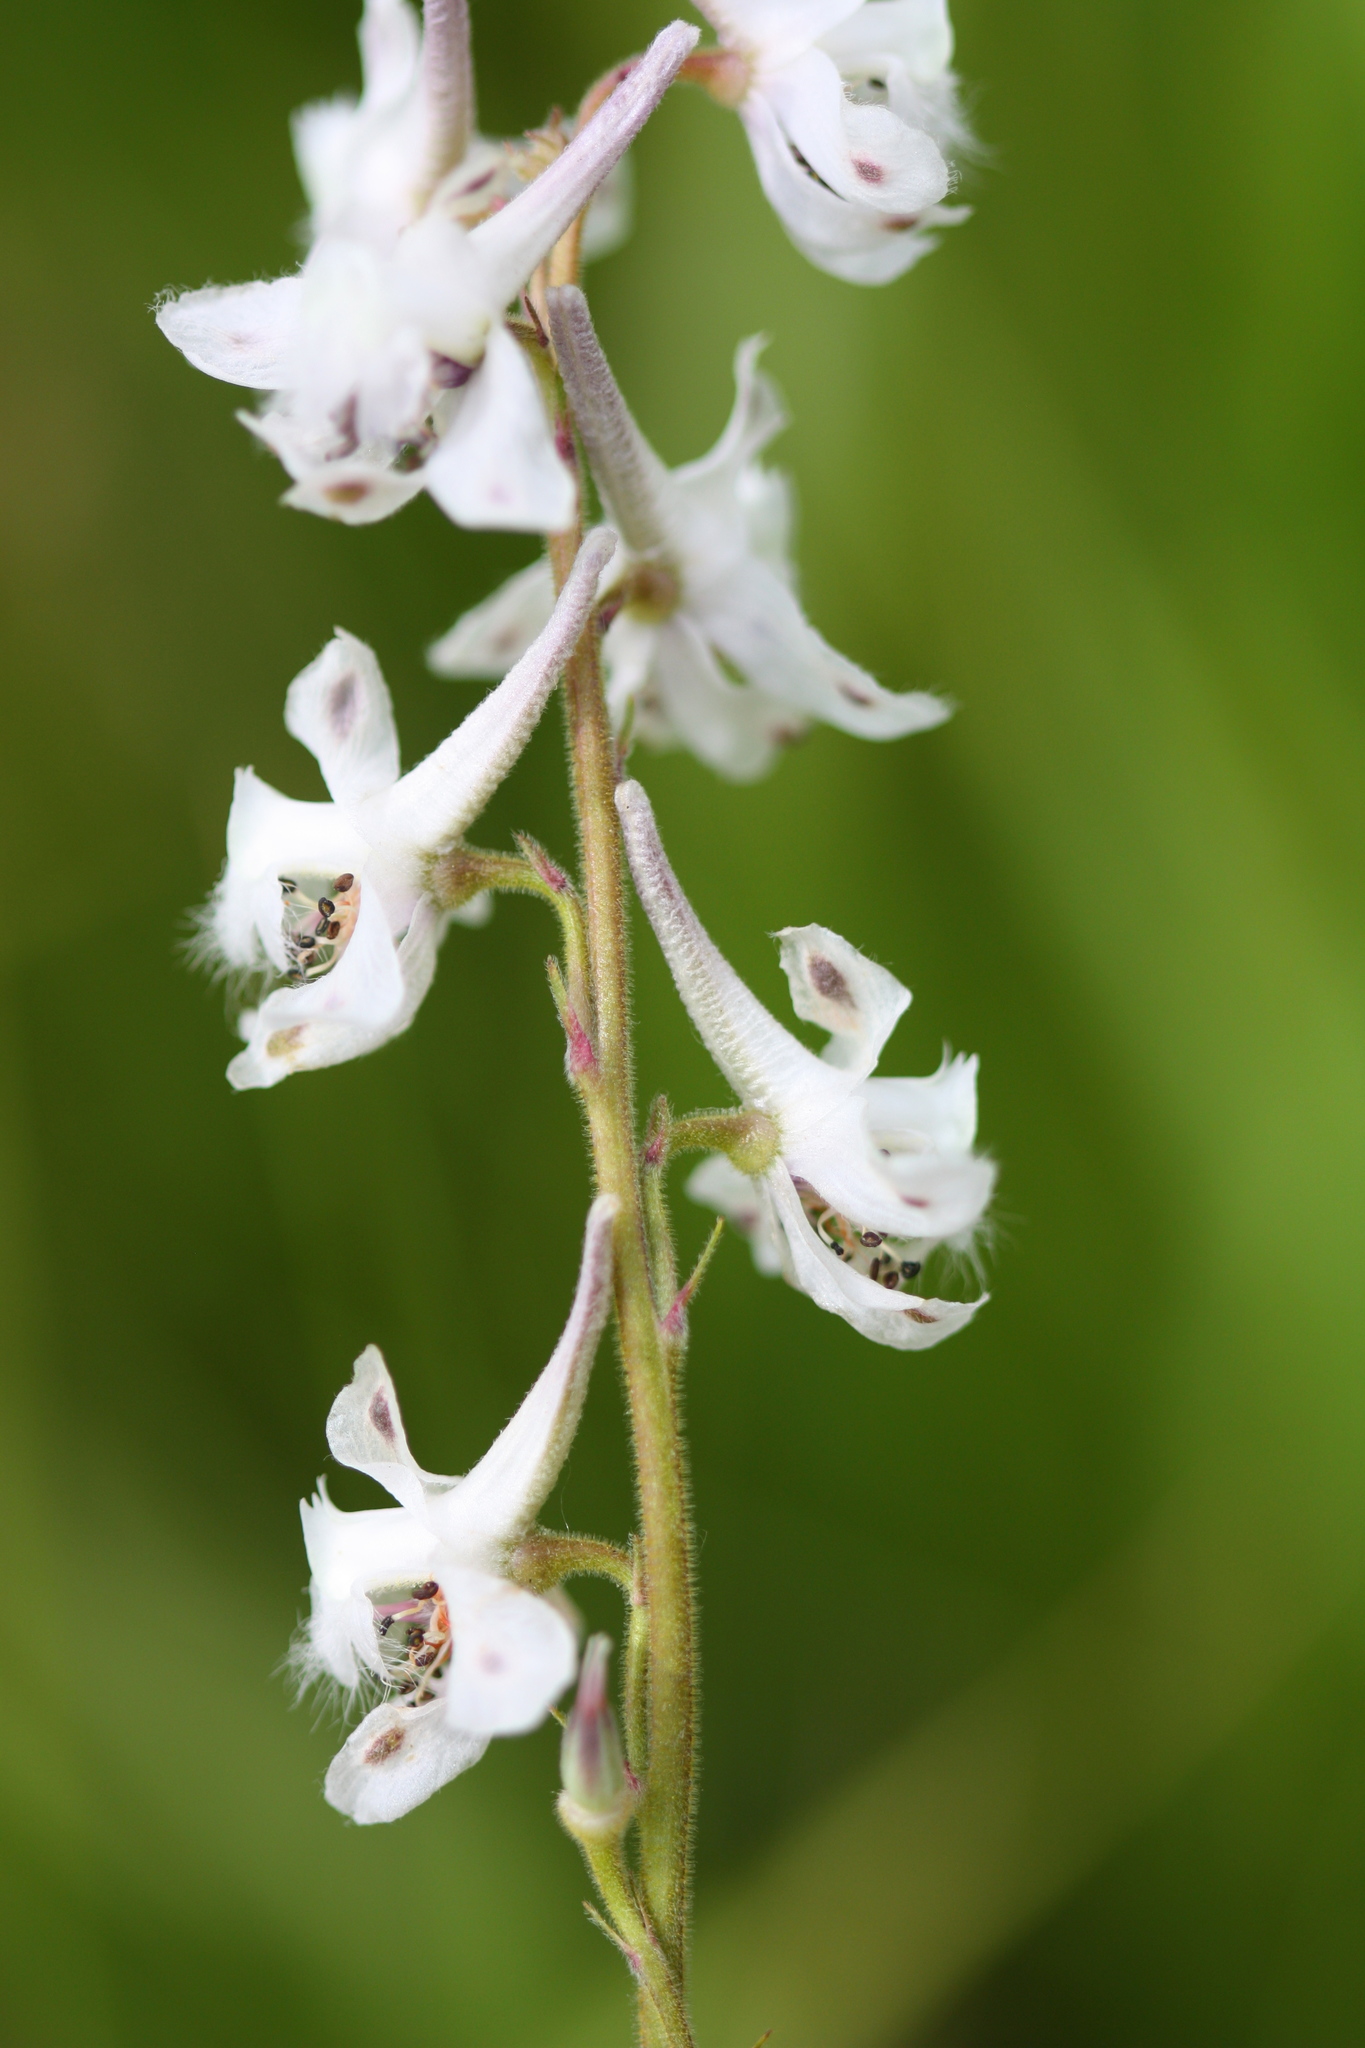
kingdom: Plantae
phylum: Tracheophyta
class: Magnoliopsida
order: Ranunculales
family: Ranunculaceae
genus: Delphinium
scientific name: Delphinium carolinianum
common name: Carolina larkspur
